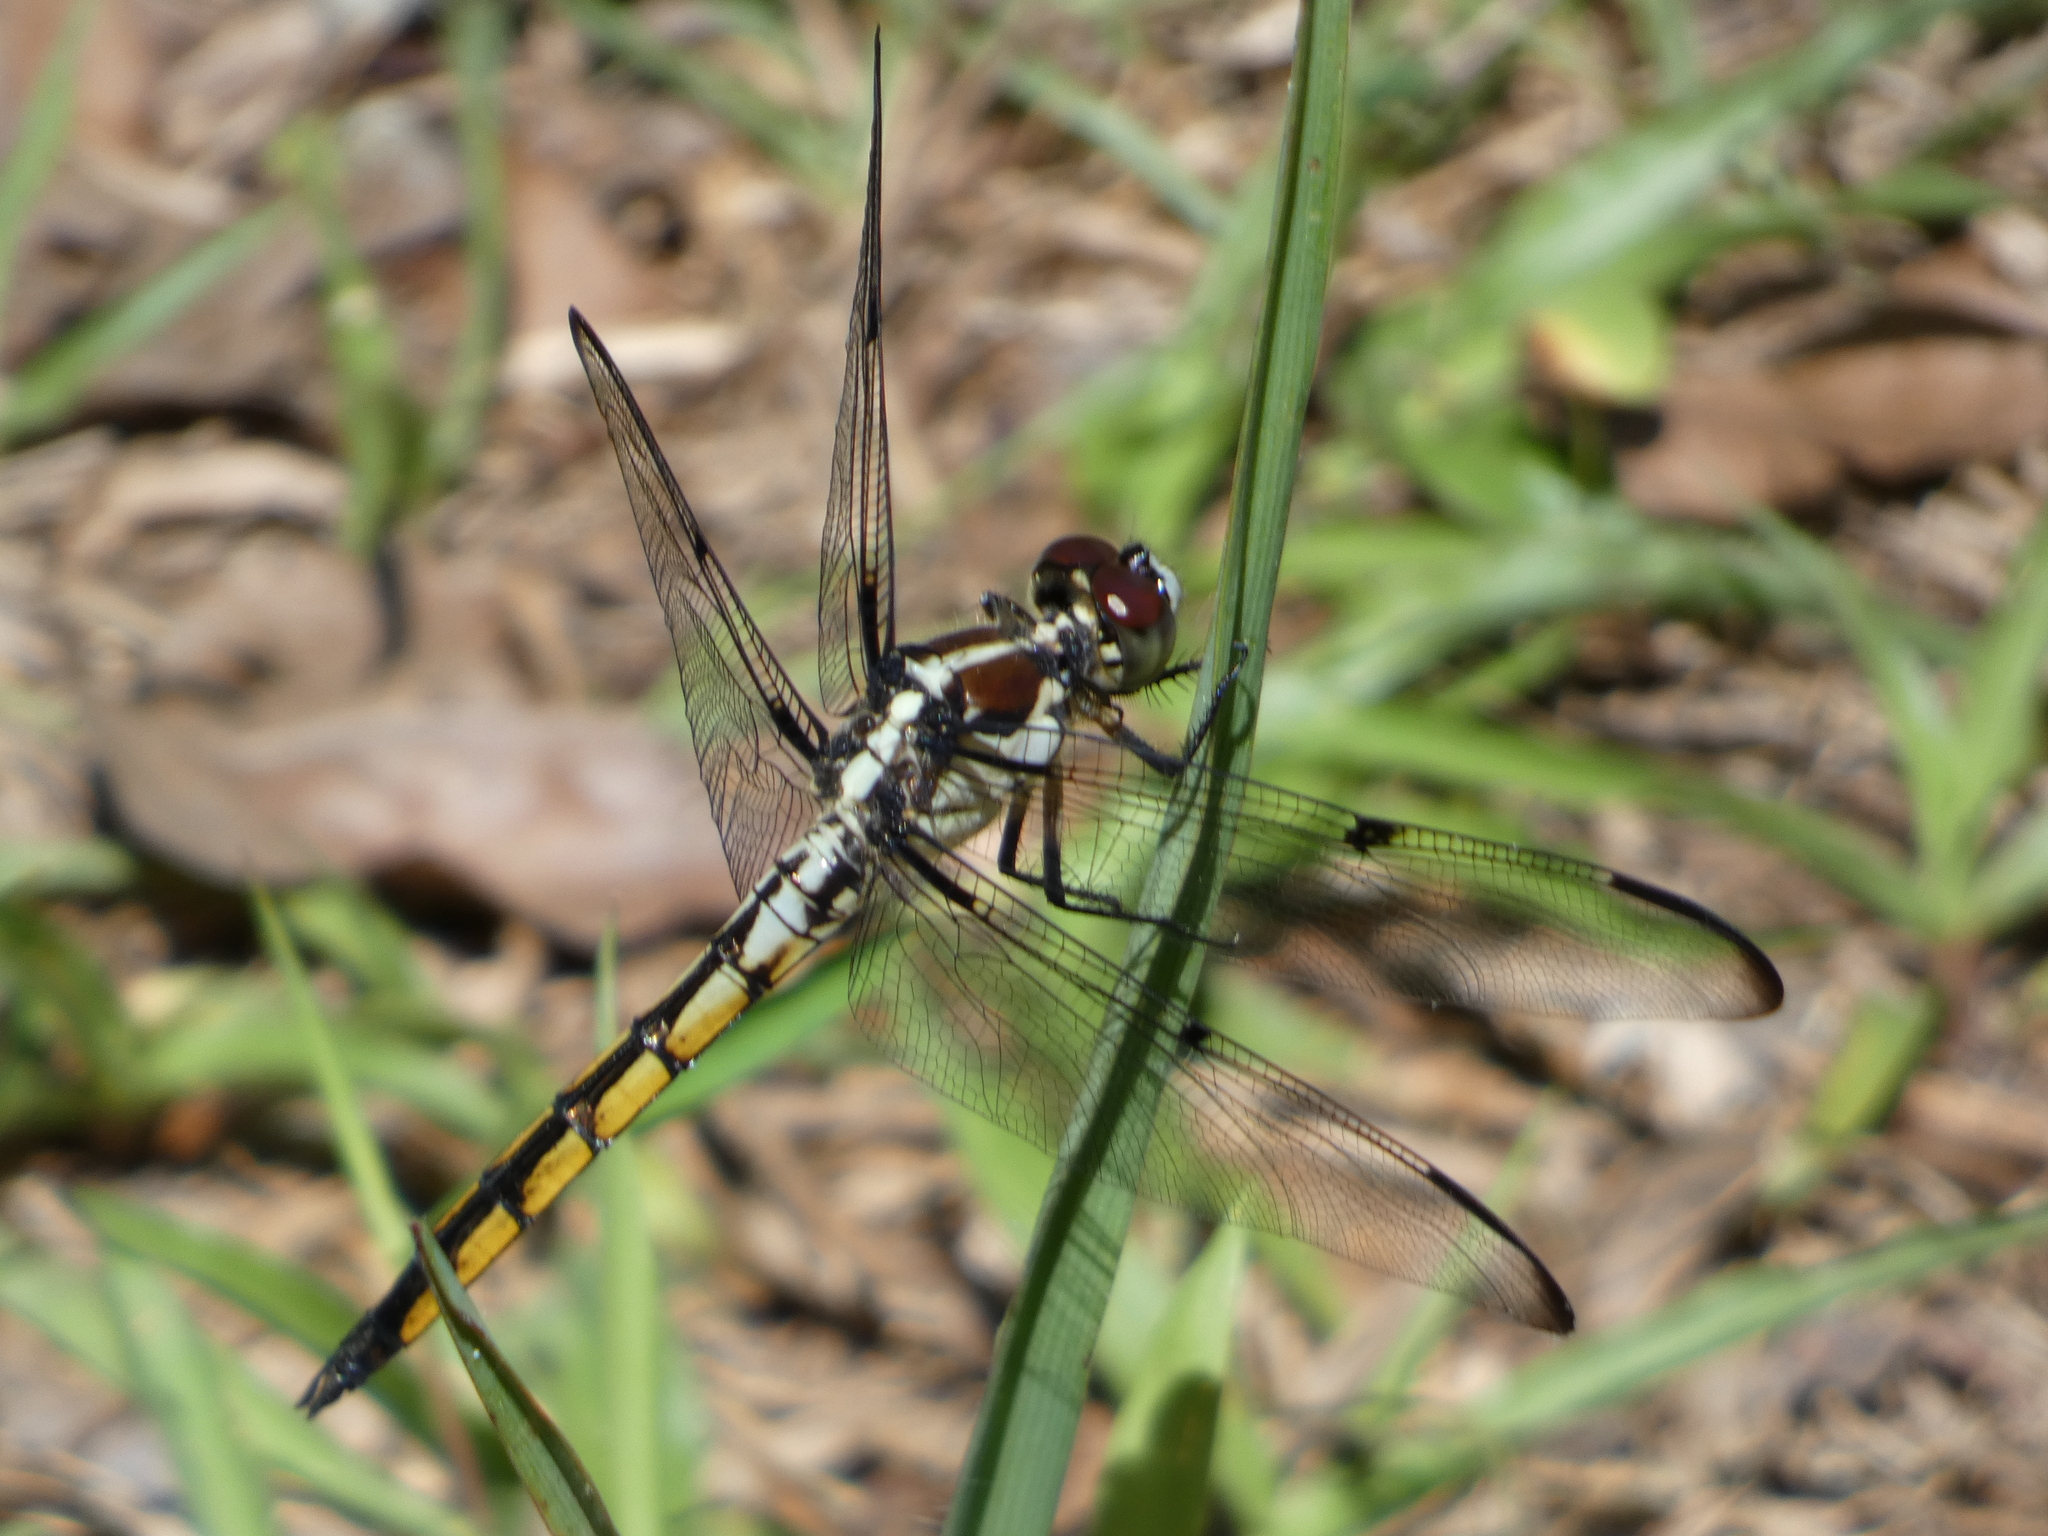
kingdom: Animalia
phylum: Arthropoda
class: Insecta
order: Odonata
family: Libellulidae
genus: Libellula
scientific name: Libellula vibrans
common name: Great blue skimmer
